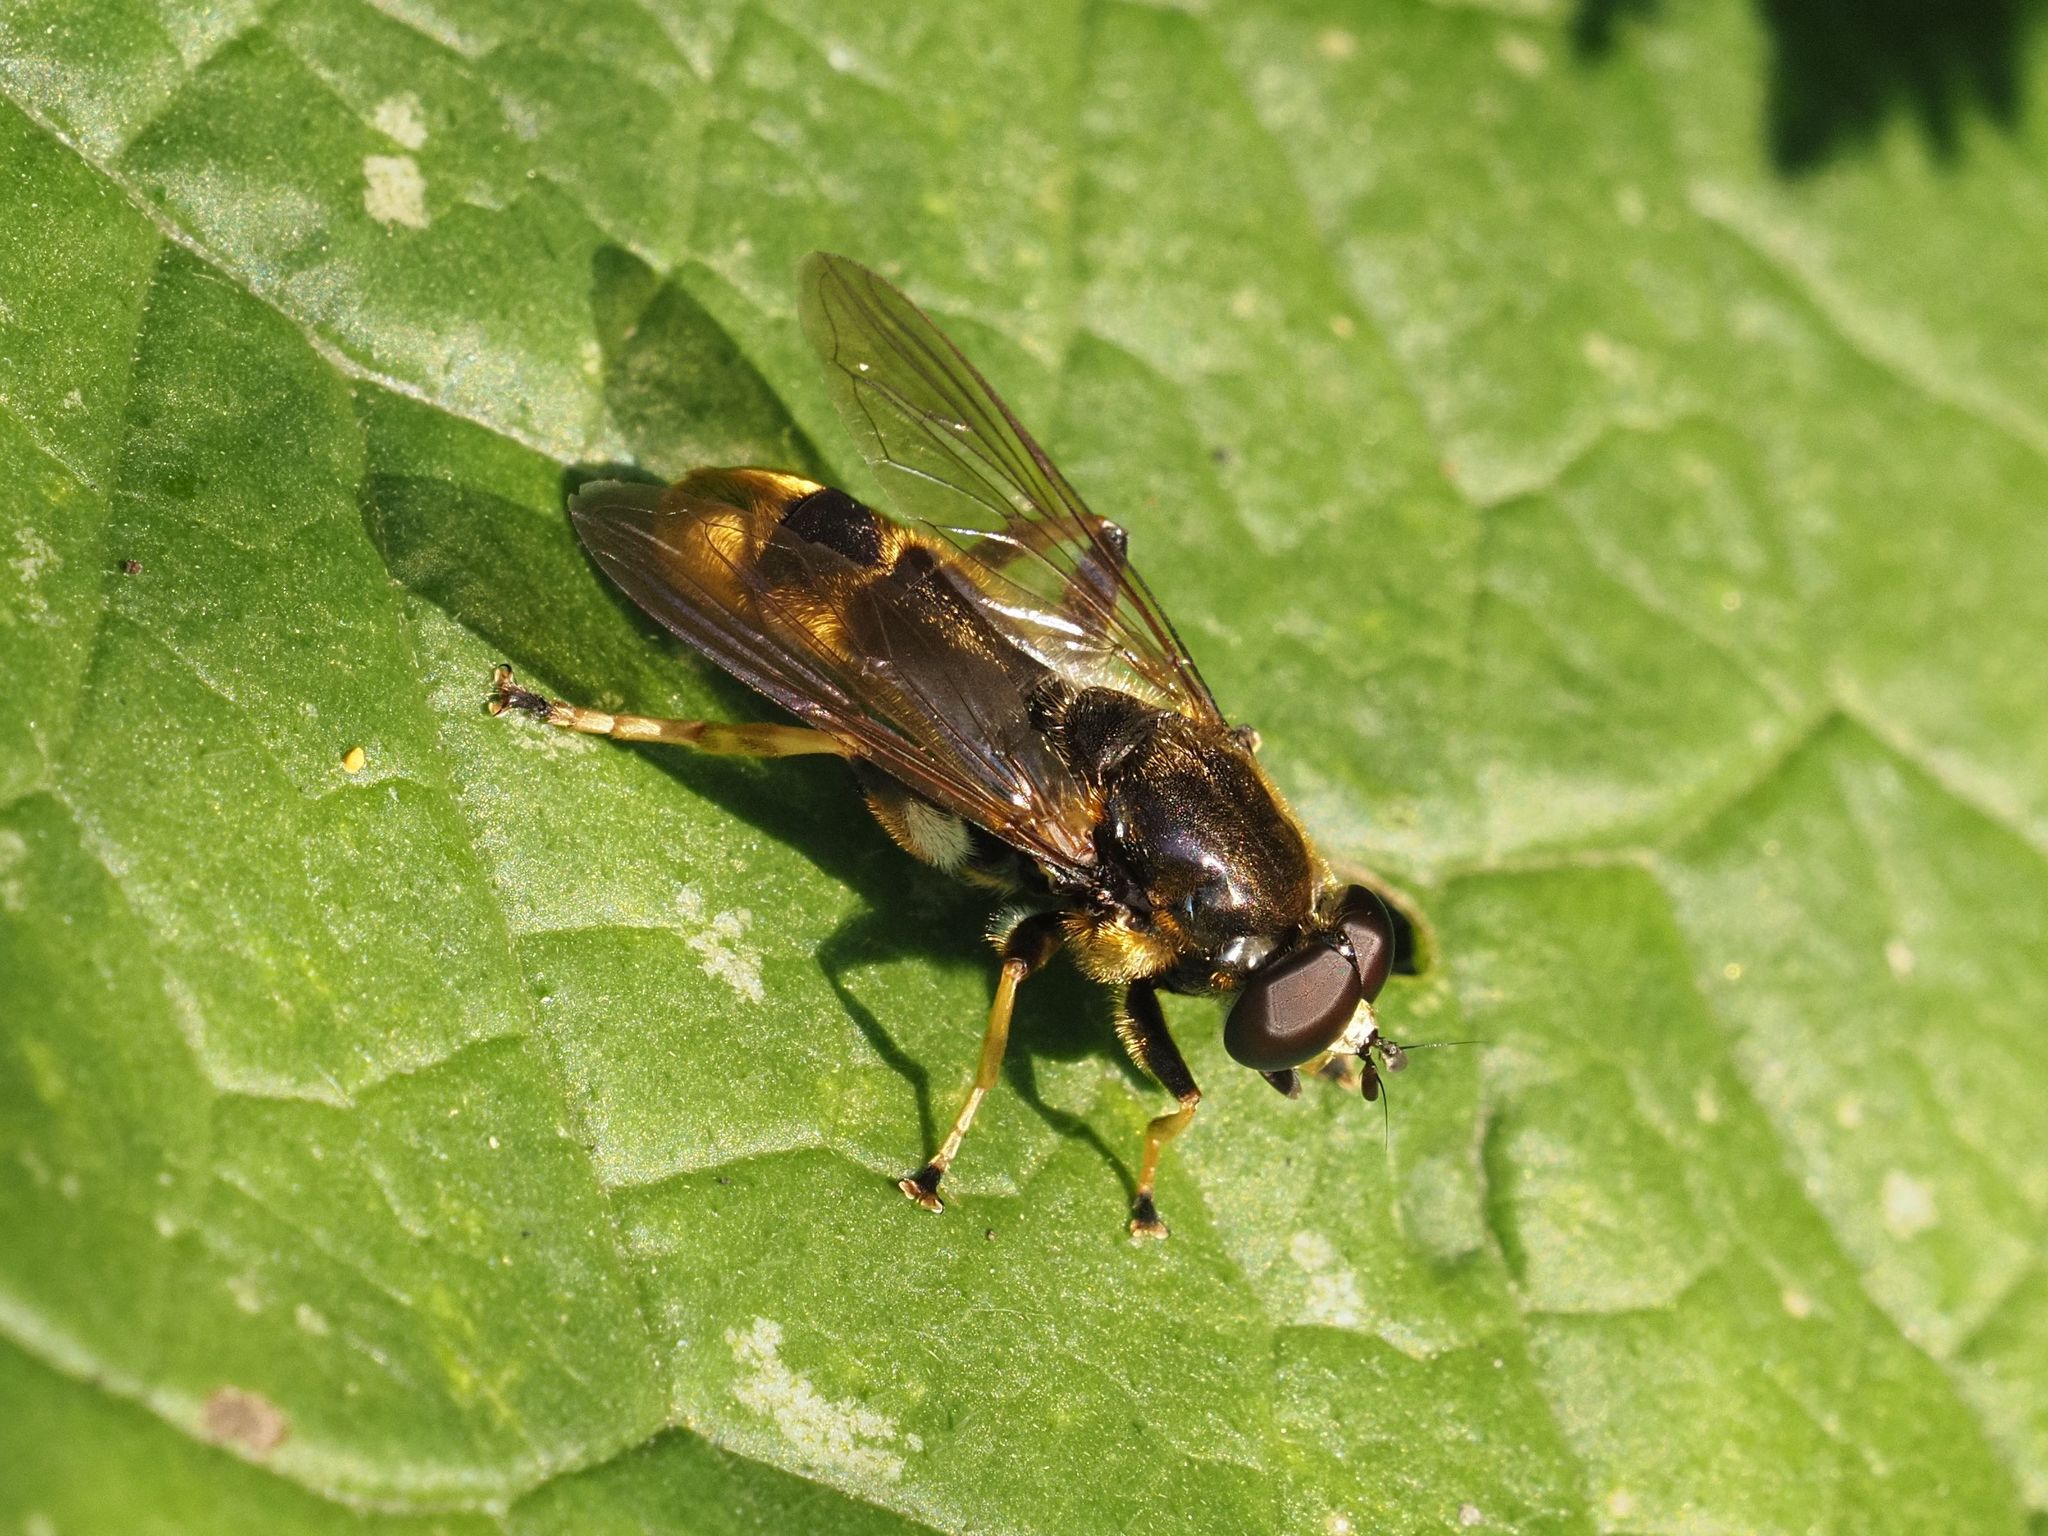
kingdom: Animalia
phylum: Arthropoda
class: Insecta
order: Diptera
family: Syrphidae
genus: Xylota
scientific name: Xylota sylvarum
